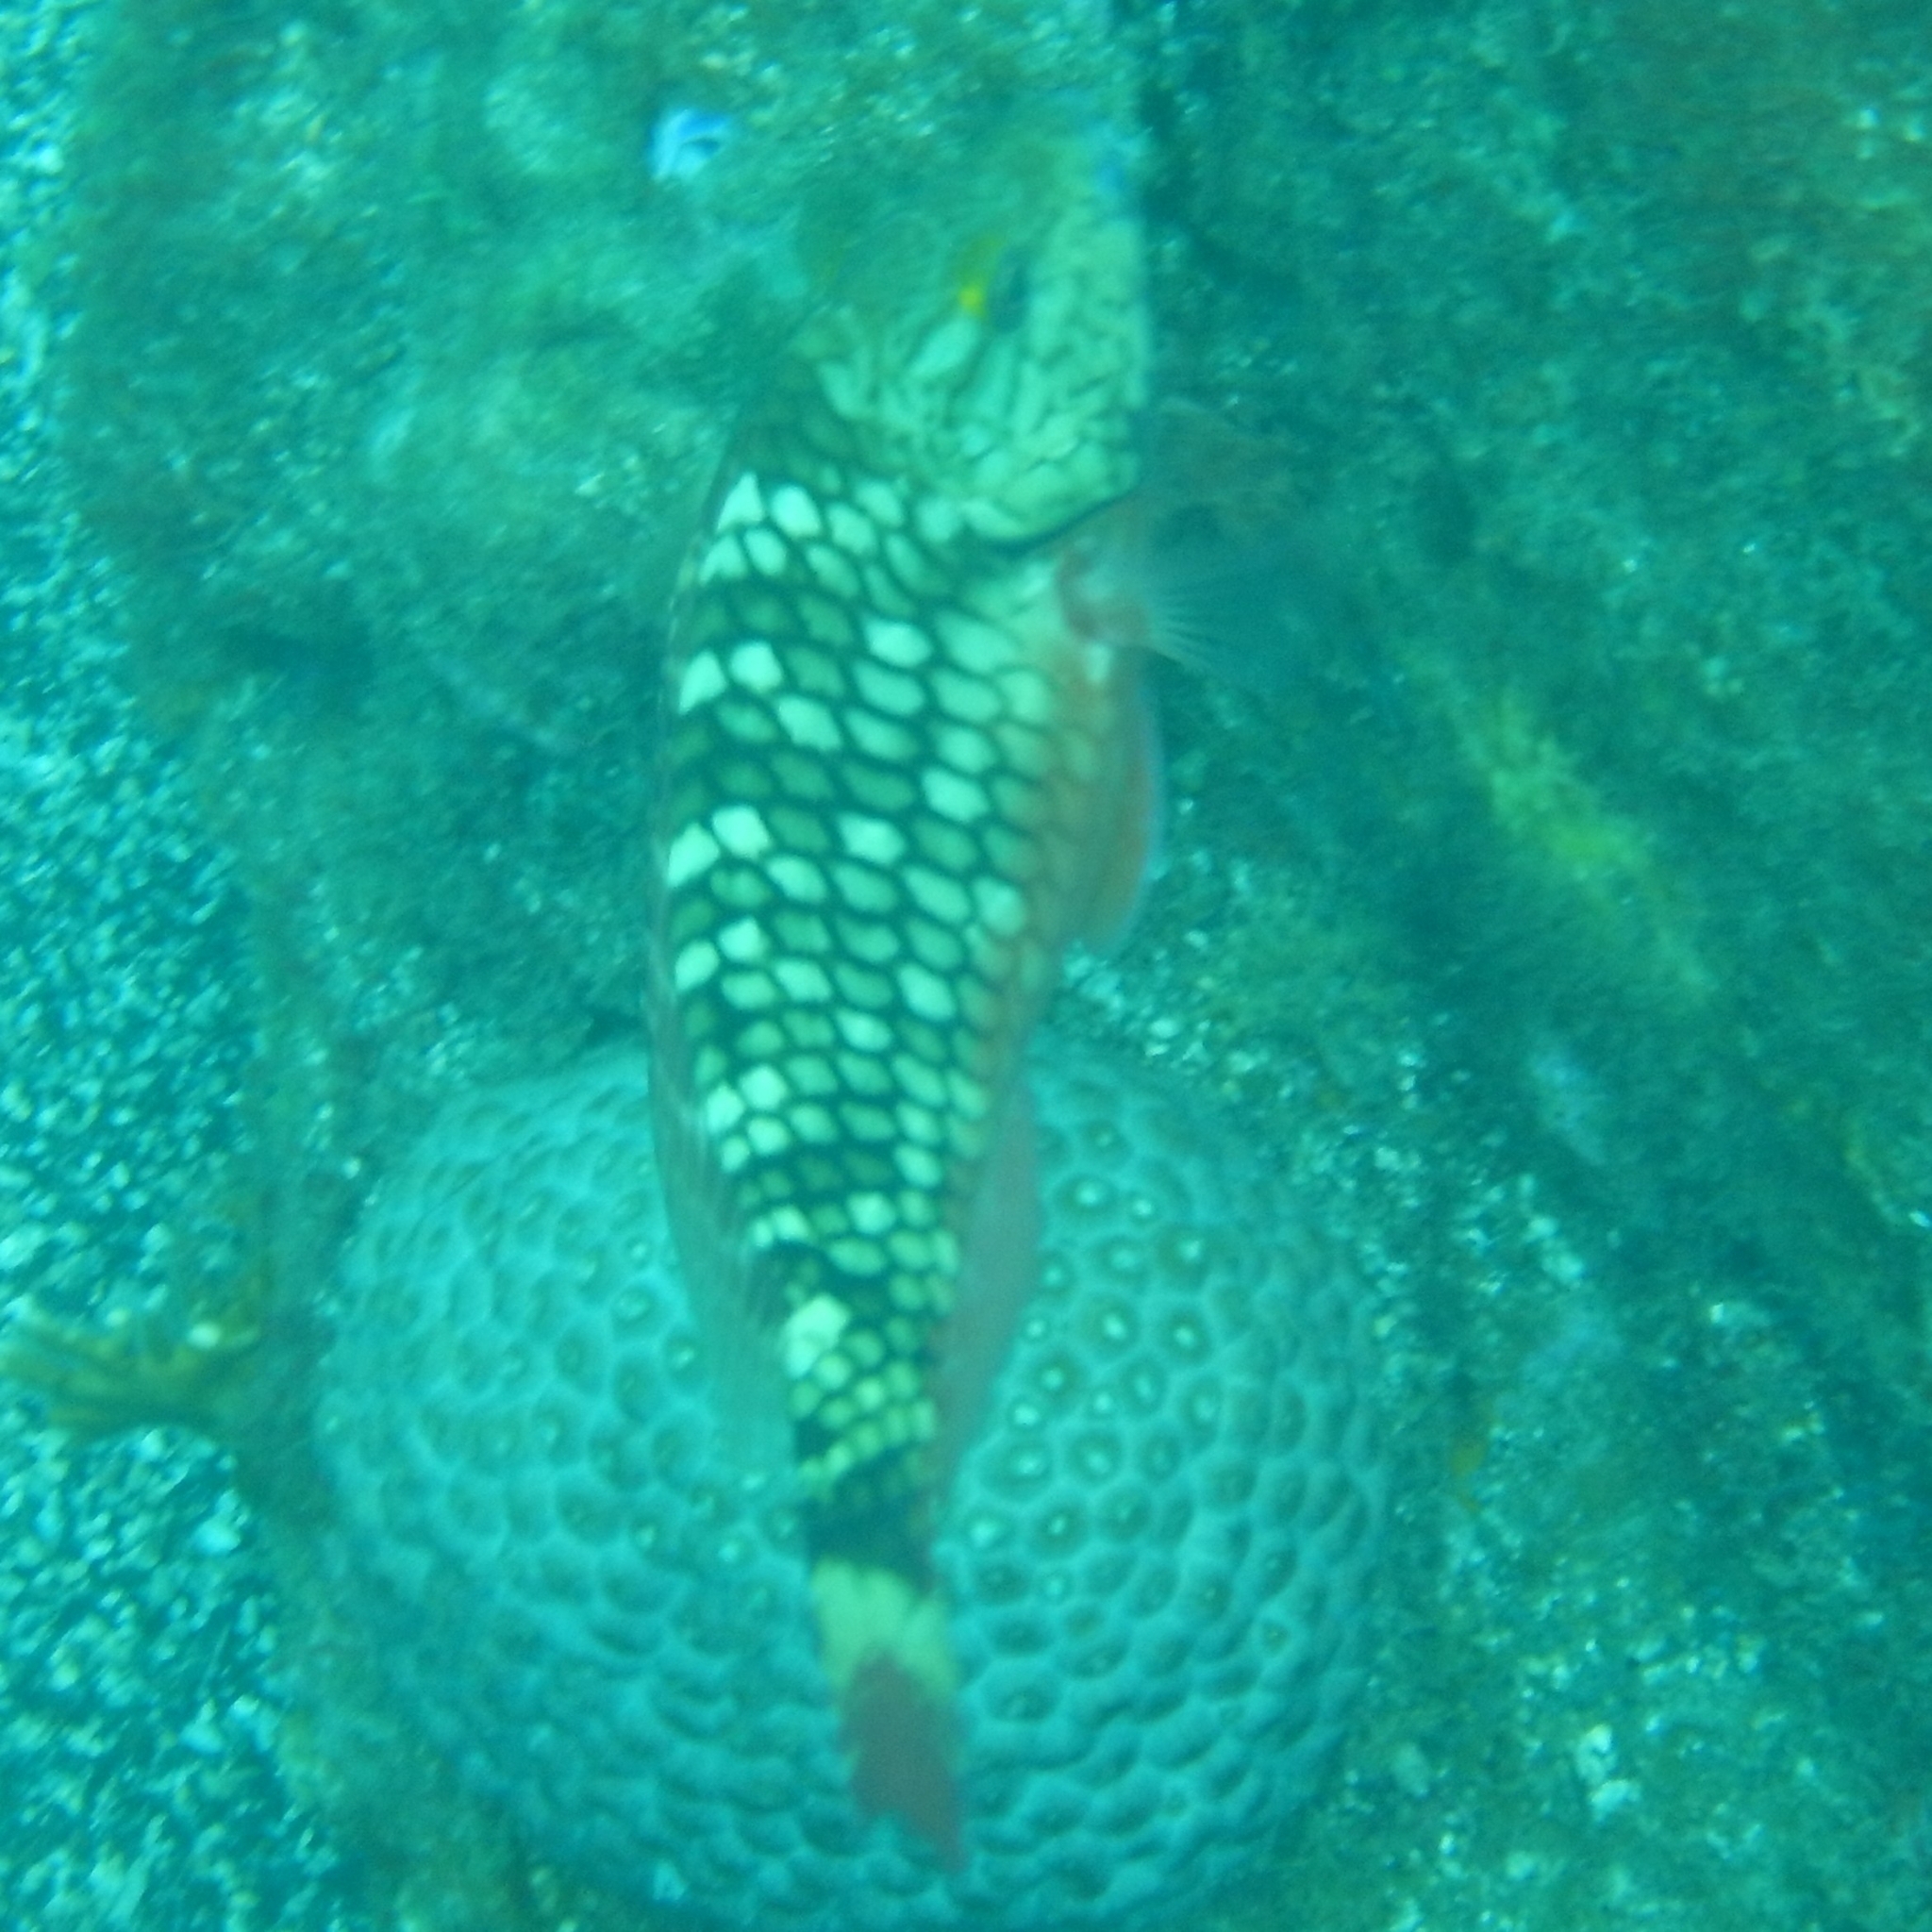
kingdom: Animalia
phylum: Chordata
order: Perciformes
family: Scaridae
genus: Sparisoma
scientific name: Sparisoma viride
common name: Stoplight parrotfish
